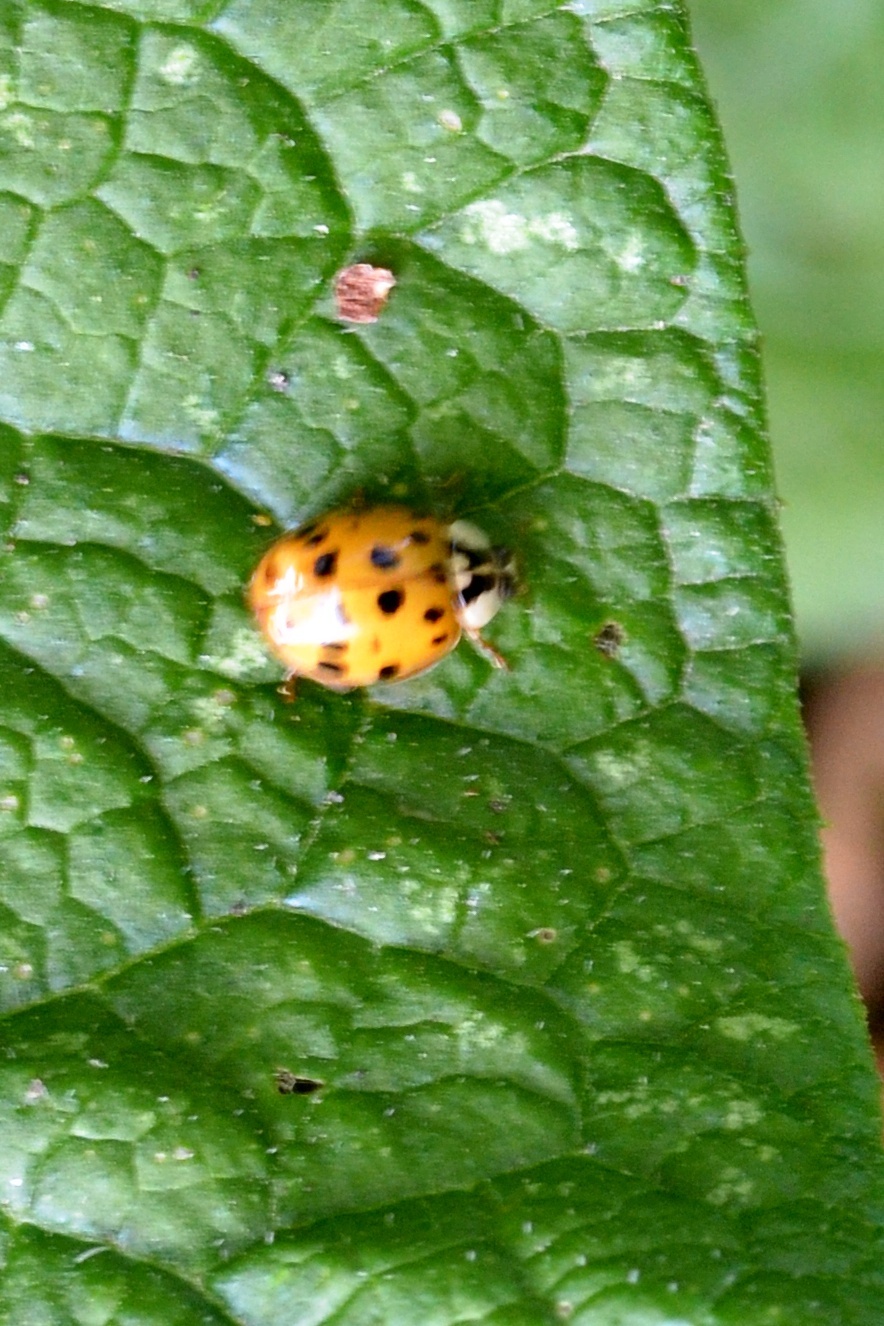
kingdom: Animalia
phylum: Arthropoda
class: Insecta
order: Coleoptera
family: Coccinellidae
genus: Harmonia
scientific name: Harmonia axyridis
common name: Harlequin ladybird
